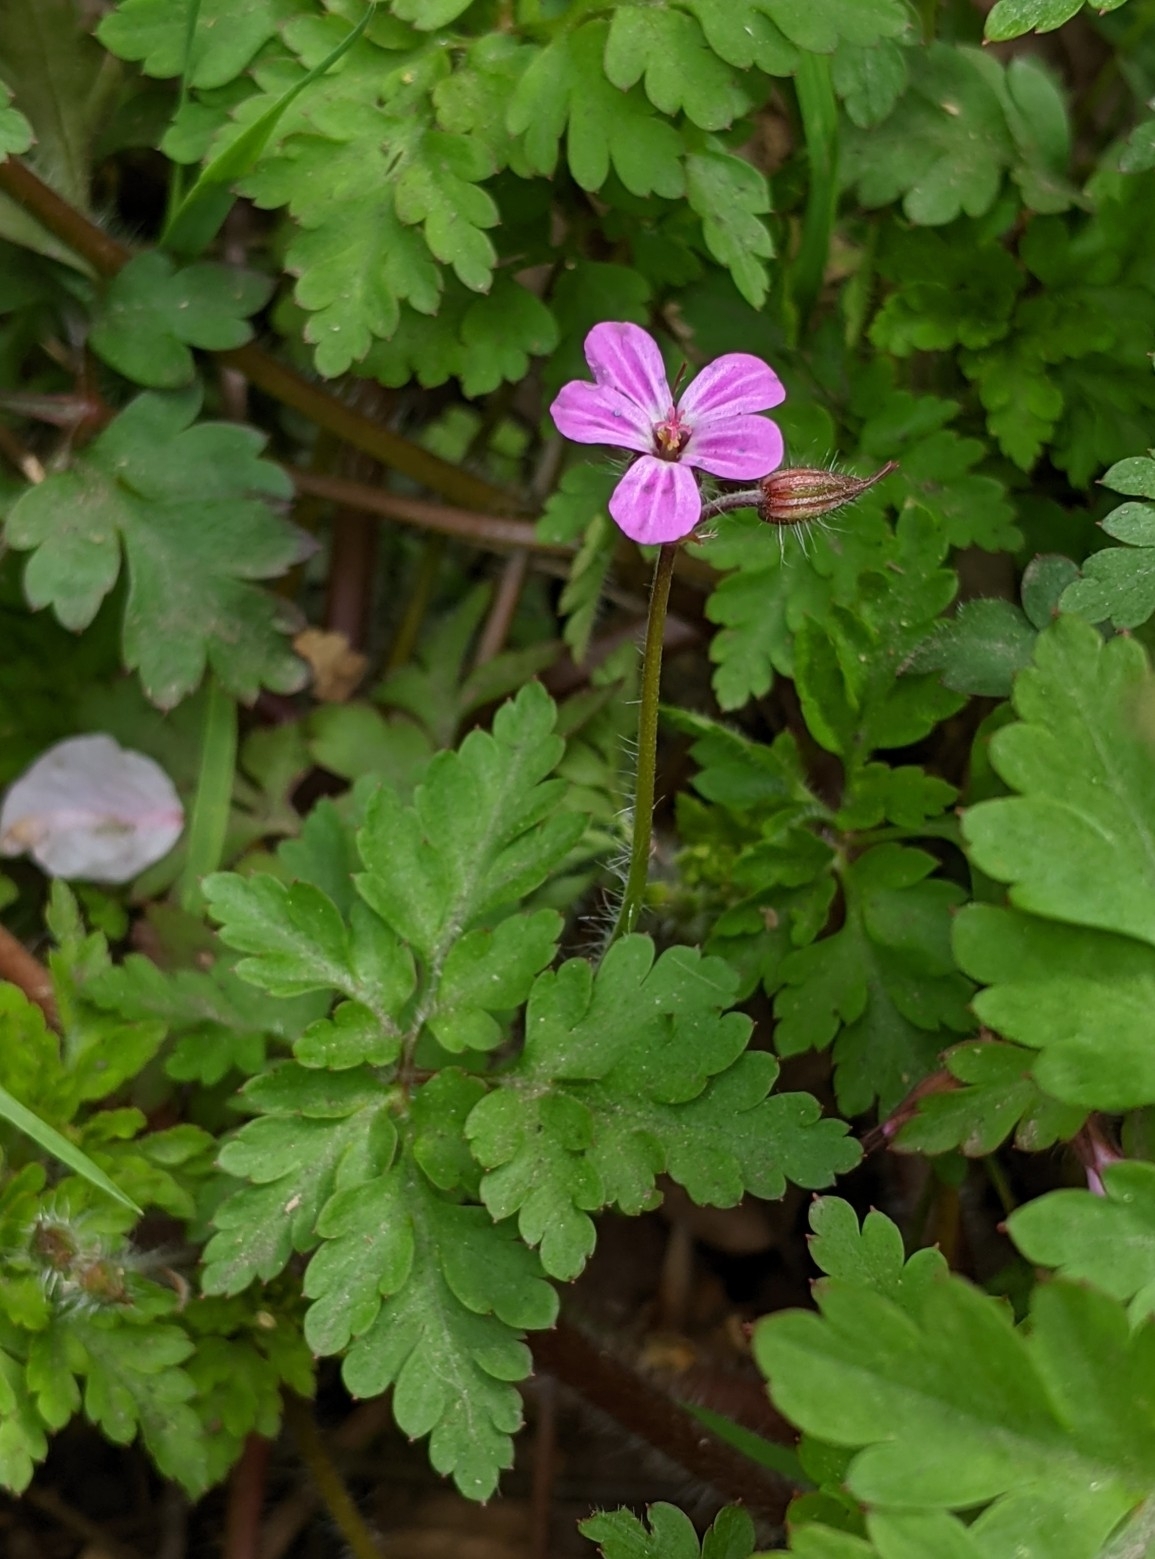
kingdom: Plantae
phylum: Tracheophyta
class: Magnoliopsida
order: Geraniales
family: Geraniaceae
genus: Geranium
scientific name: Geranium robertianum
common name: Herb-robert
